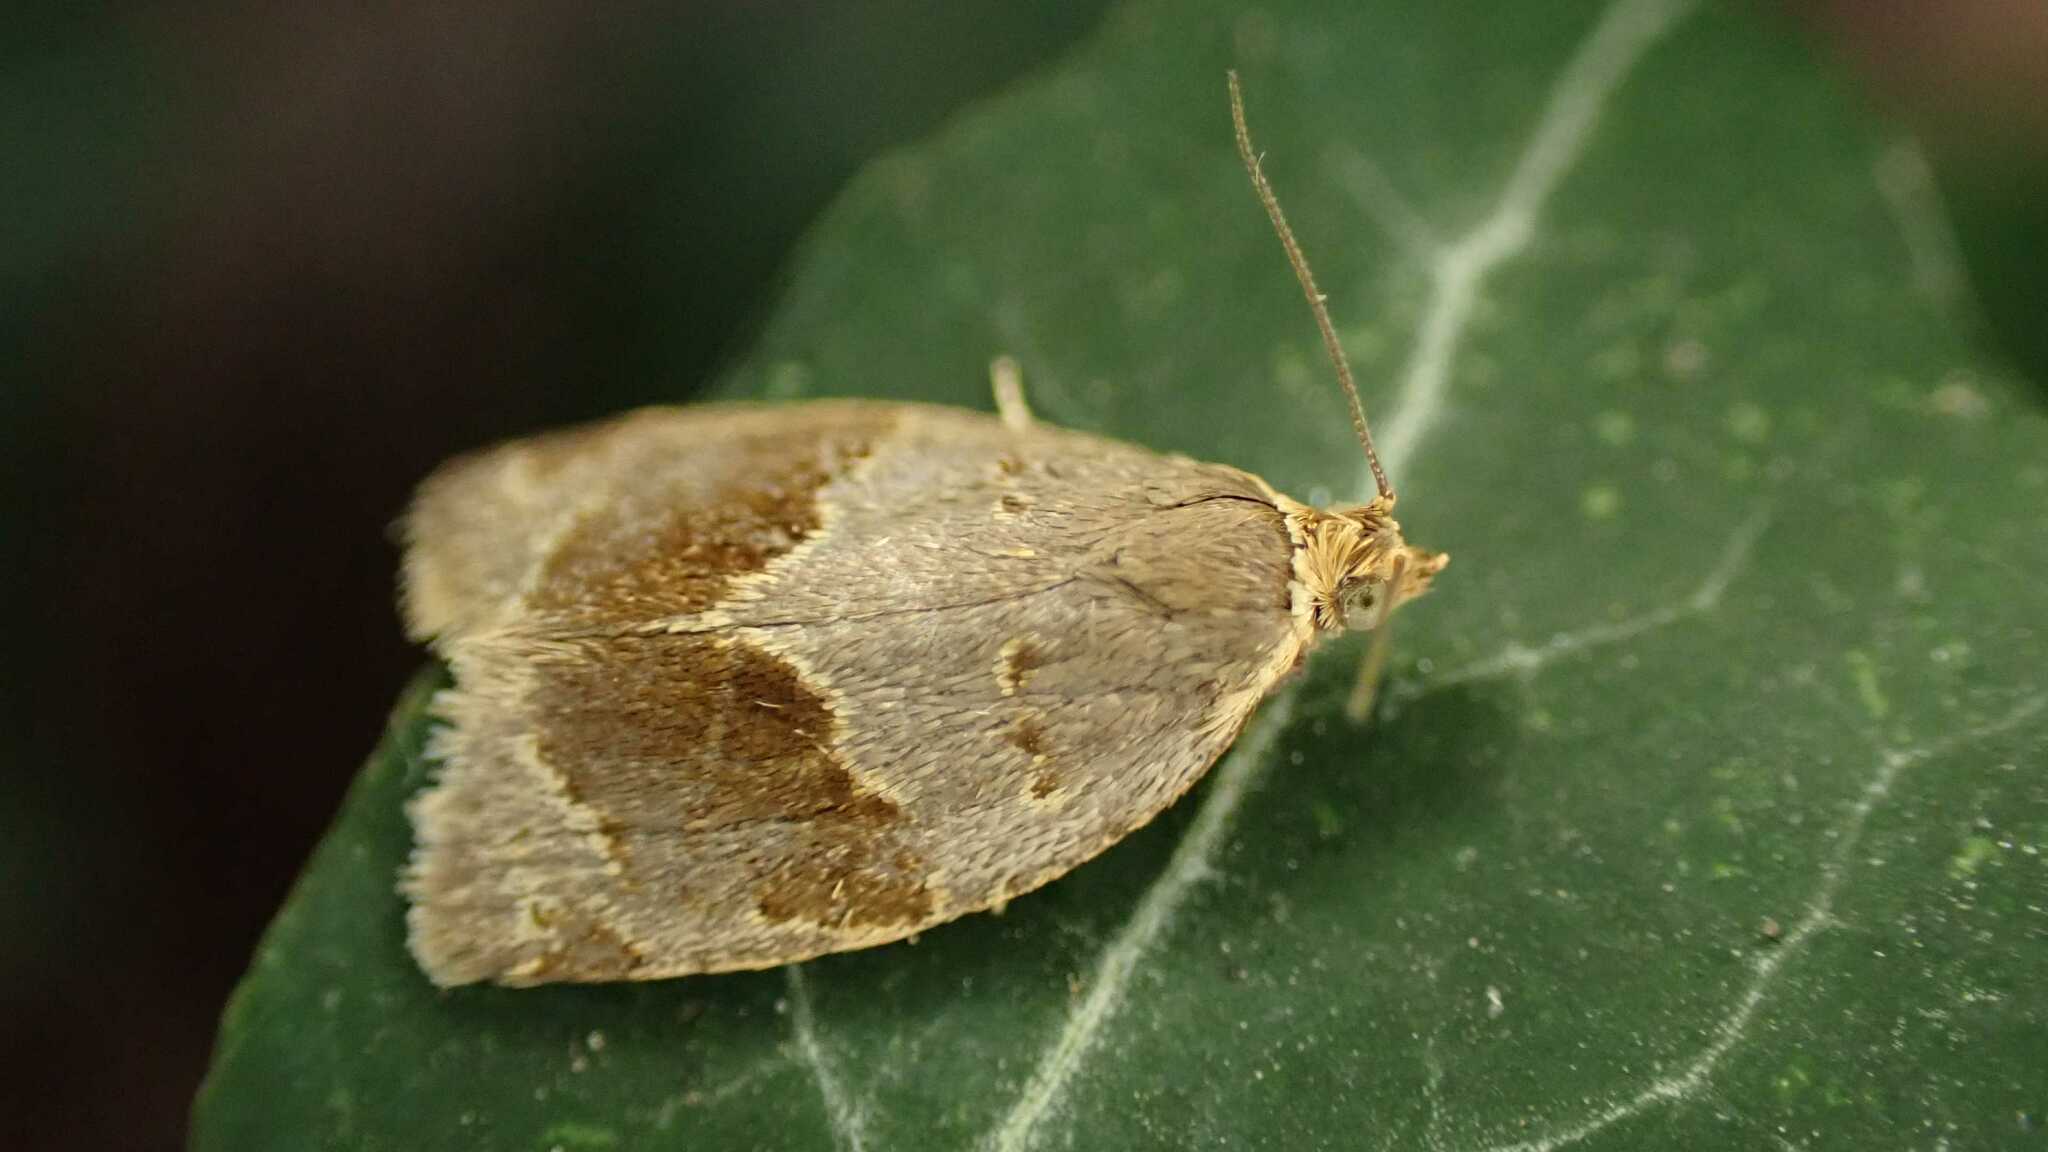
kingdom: Animalia
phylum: Arthropoda
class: Insecta
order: Lepidoptera
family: Tortricidae
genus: Clepsis
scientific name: Clepsis dumicolana
